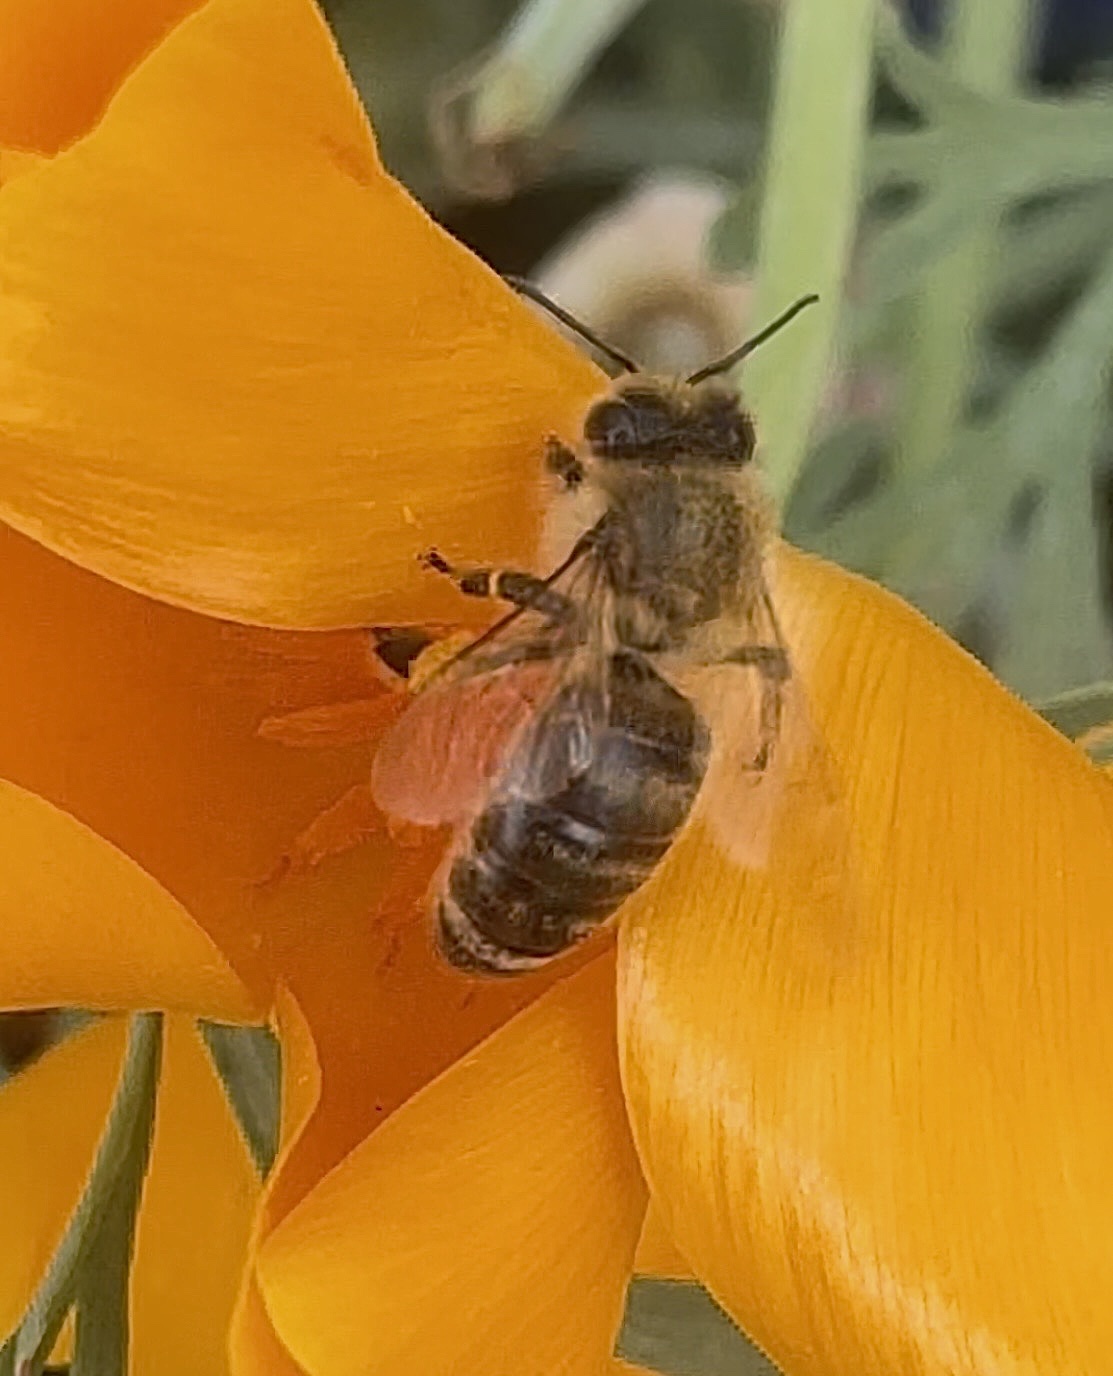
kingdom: Animalia
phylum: Arthropoda
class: Insecta
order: Hymenoptera
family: Apidae
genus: Apis
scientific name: Apis mellifera
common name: Honey bee
